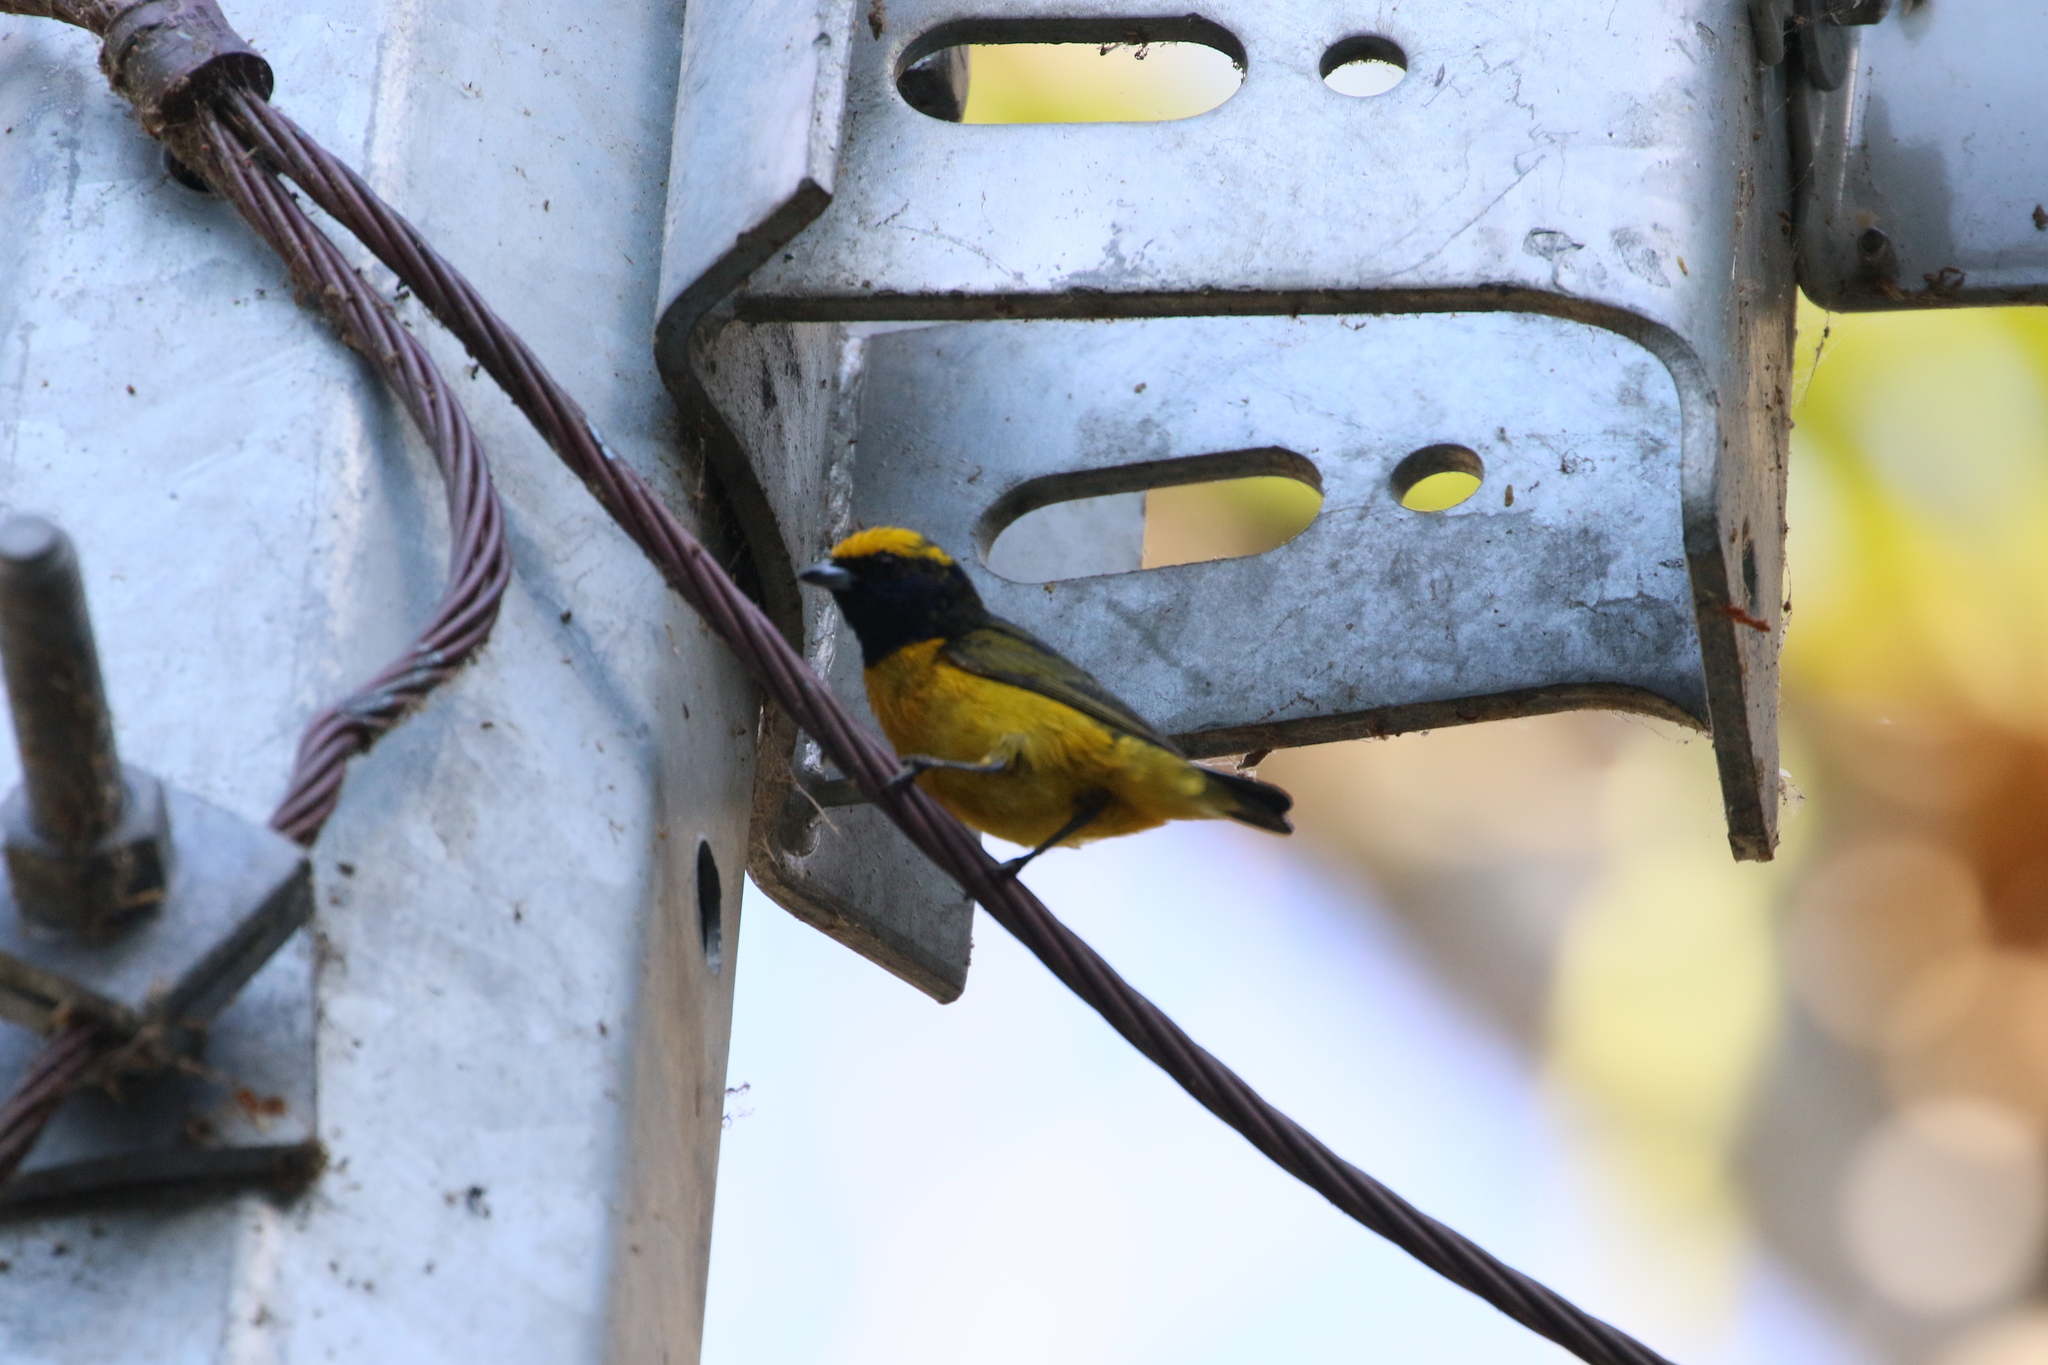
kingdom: Animalia
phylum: Chordata
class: Aves
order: Passeriformes
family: Fringillidae
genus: Euphonia
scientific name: Euphonia luteicapilla
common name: Yellow-crowned euphonia
